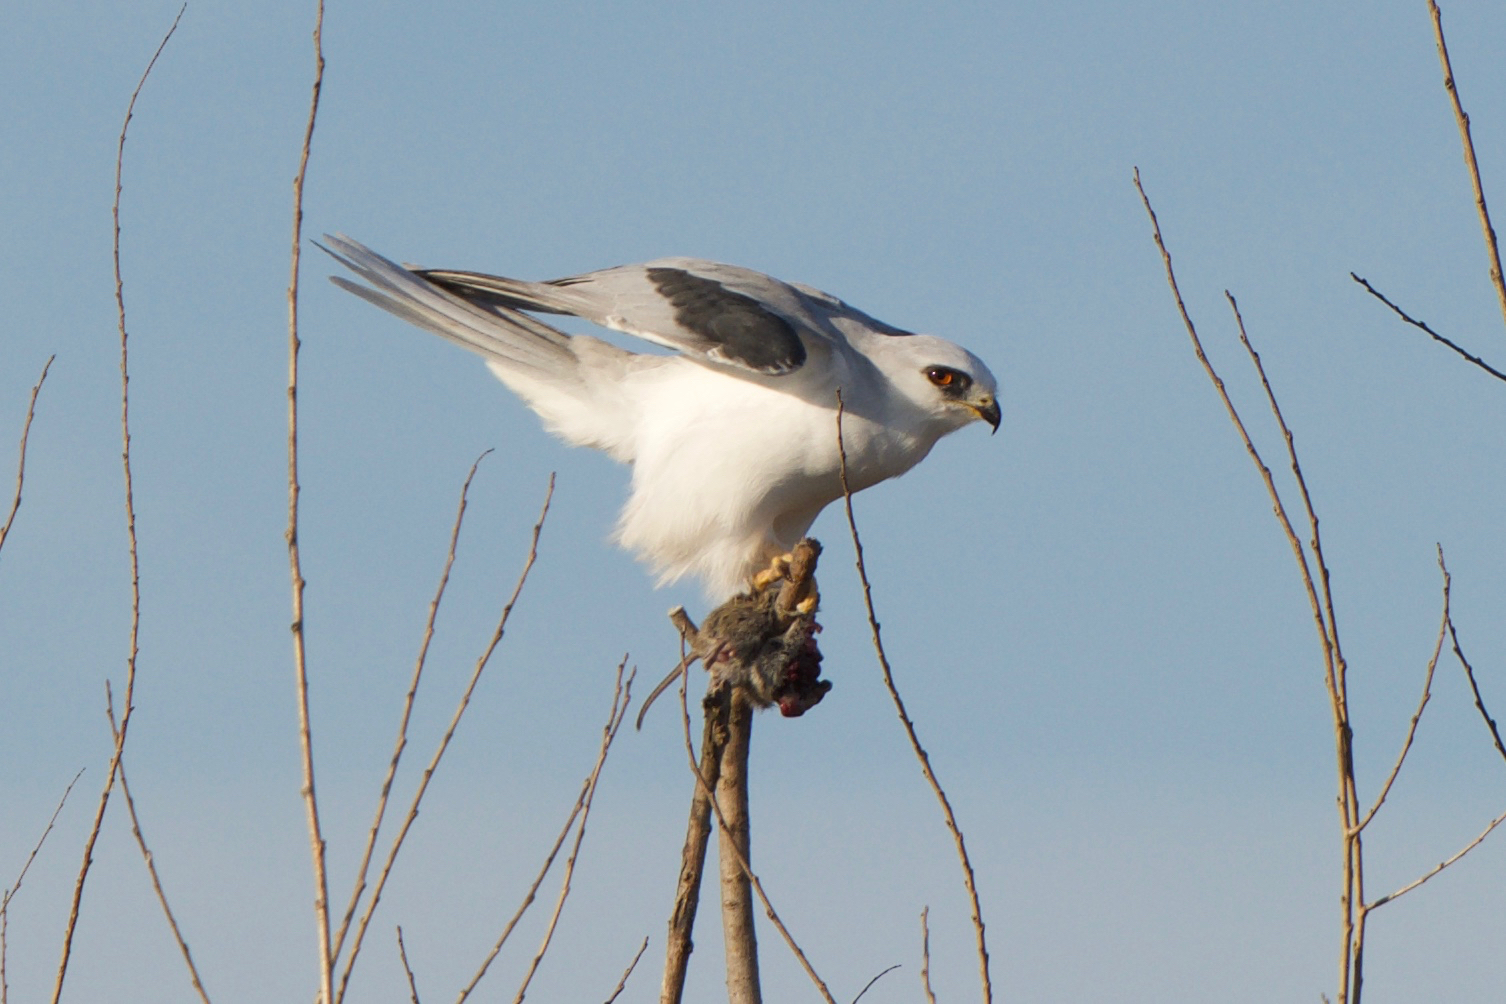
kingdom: Animalia
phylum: Chordata
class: Aves
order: Accipitriformes
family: Accipitridae
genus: Elanus
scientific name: Elanus leucurus
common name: White-tailed kite
